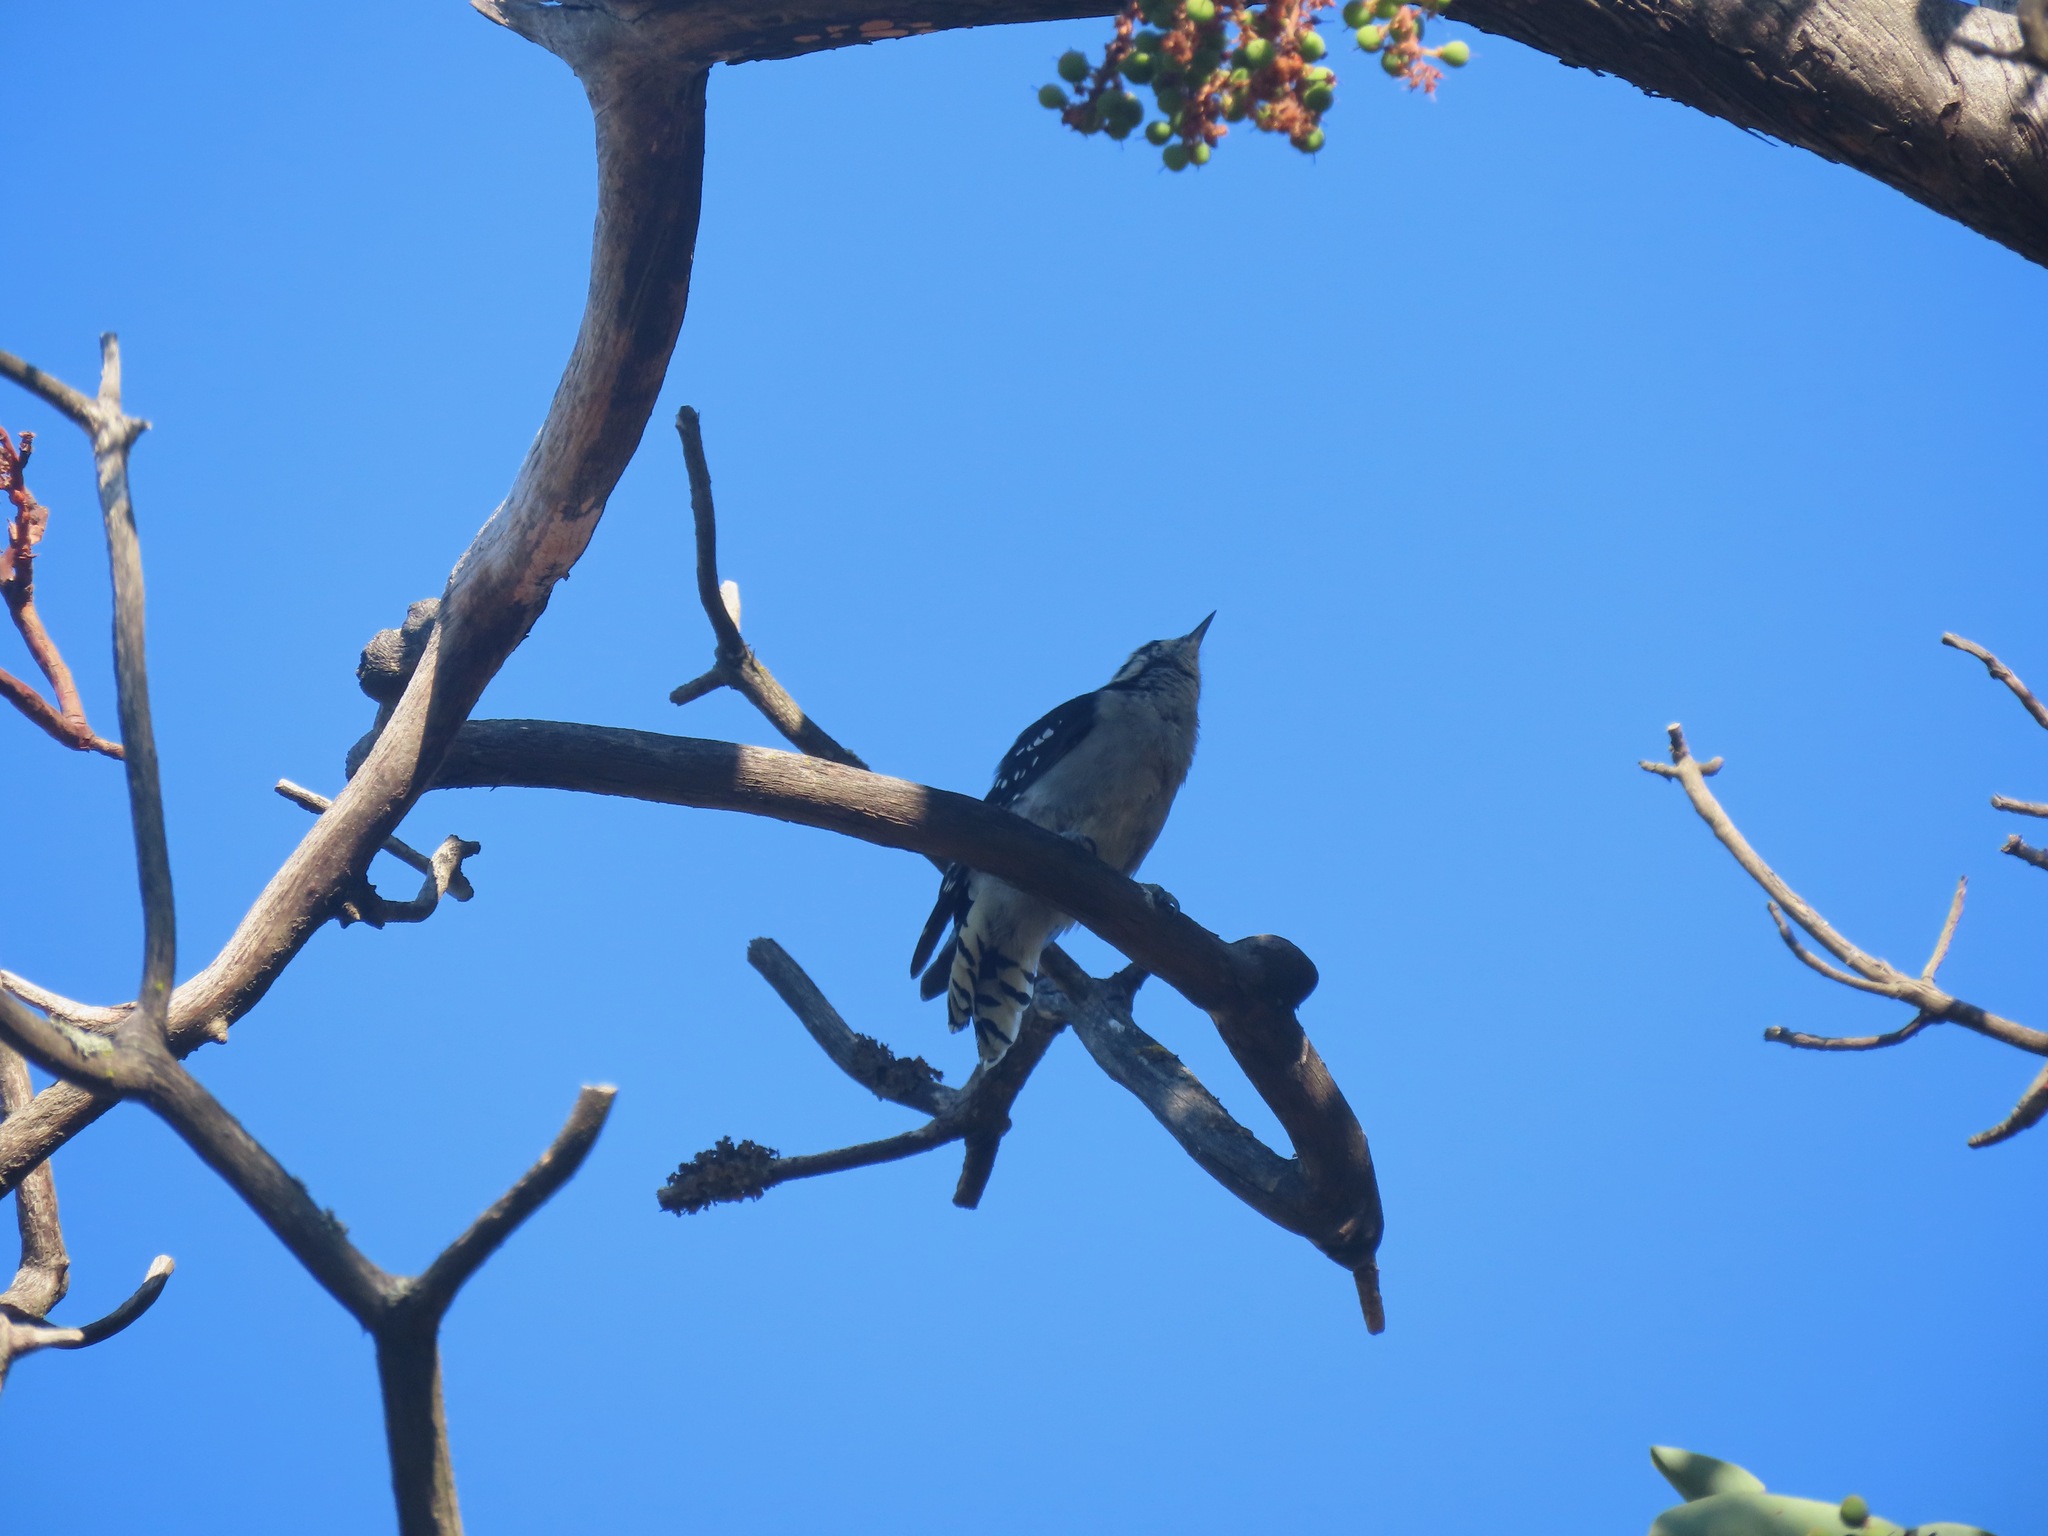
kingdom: Animalia
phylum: Chordata
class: Aves
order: Piciformes
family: Picidae
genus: Dryobates
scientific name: Dryobates pubescens
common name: Downy woodpecker
